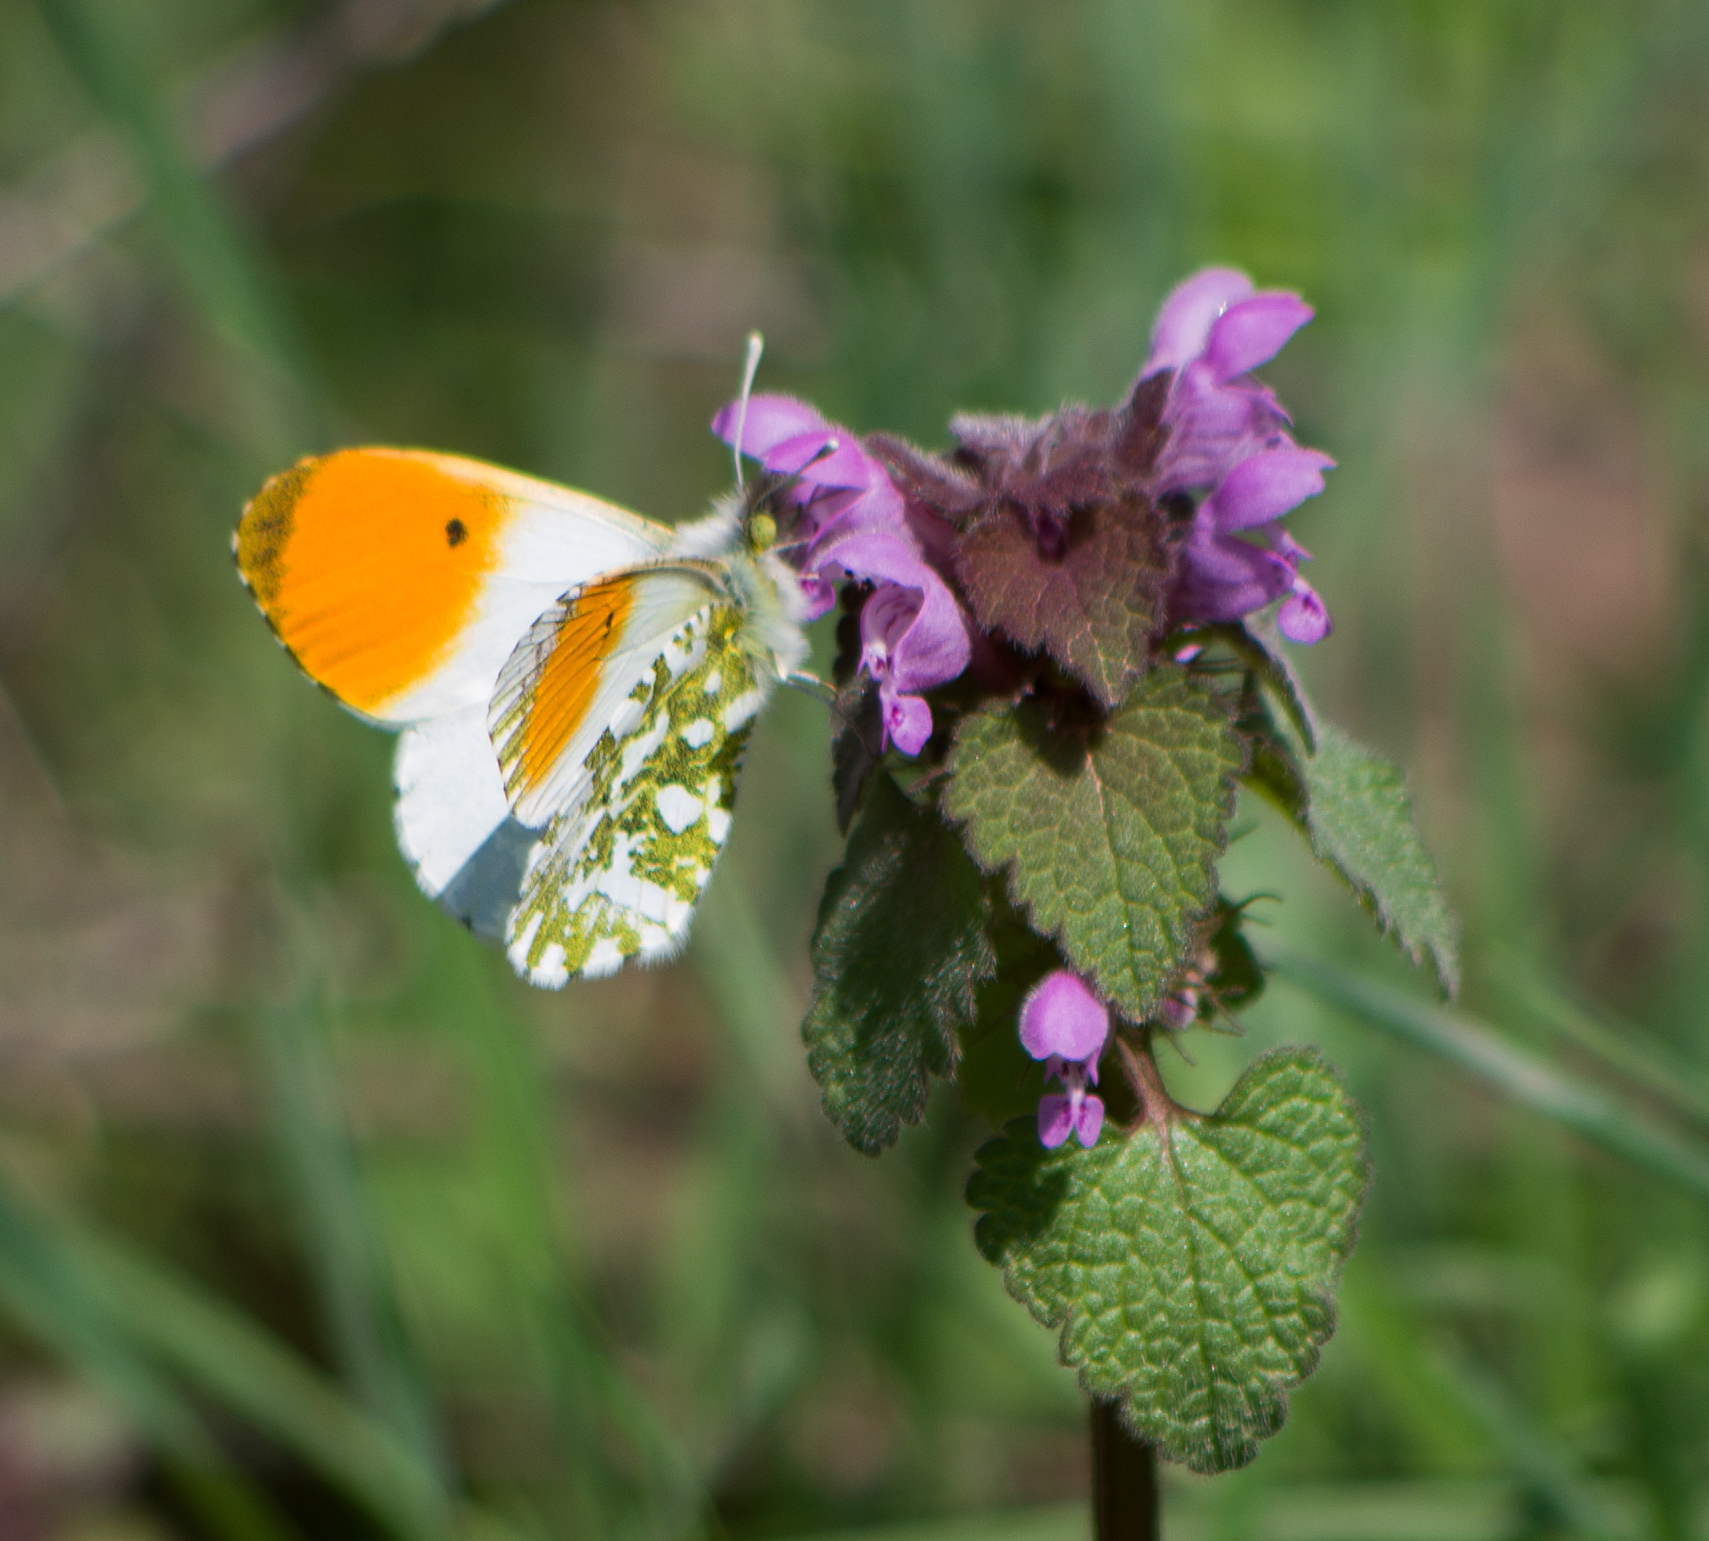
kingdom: Animalia
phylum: Arthropoda
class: Insecta
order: Lepidoptera
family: Pieridae
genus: Anthocharis
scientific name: Anthocharis cardamines
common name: Orange-tip
